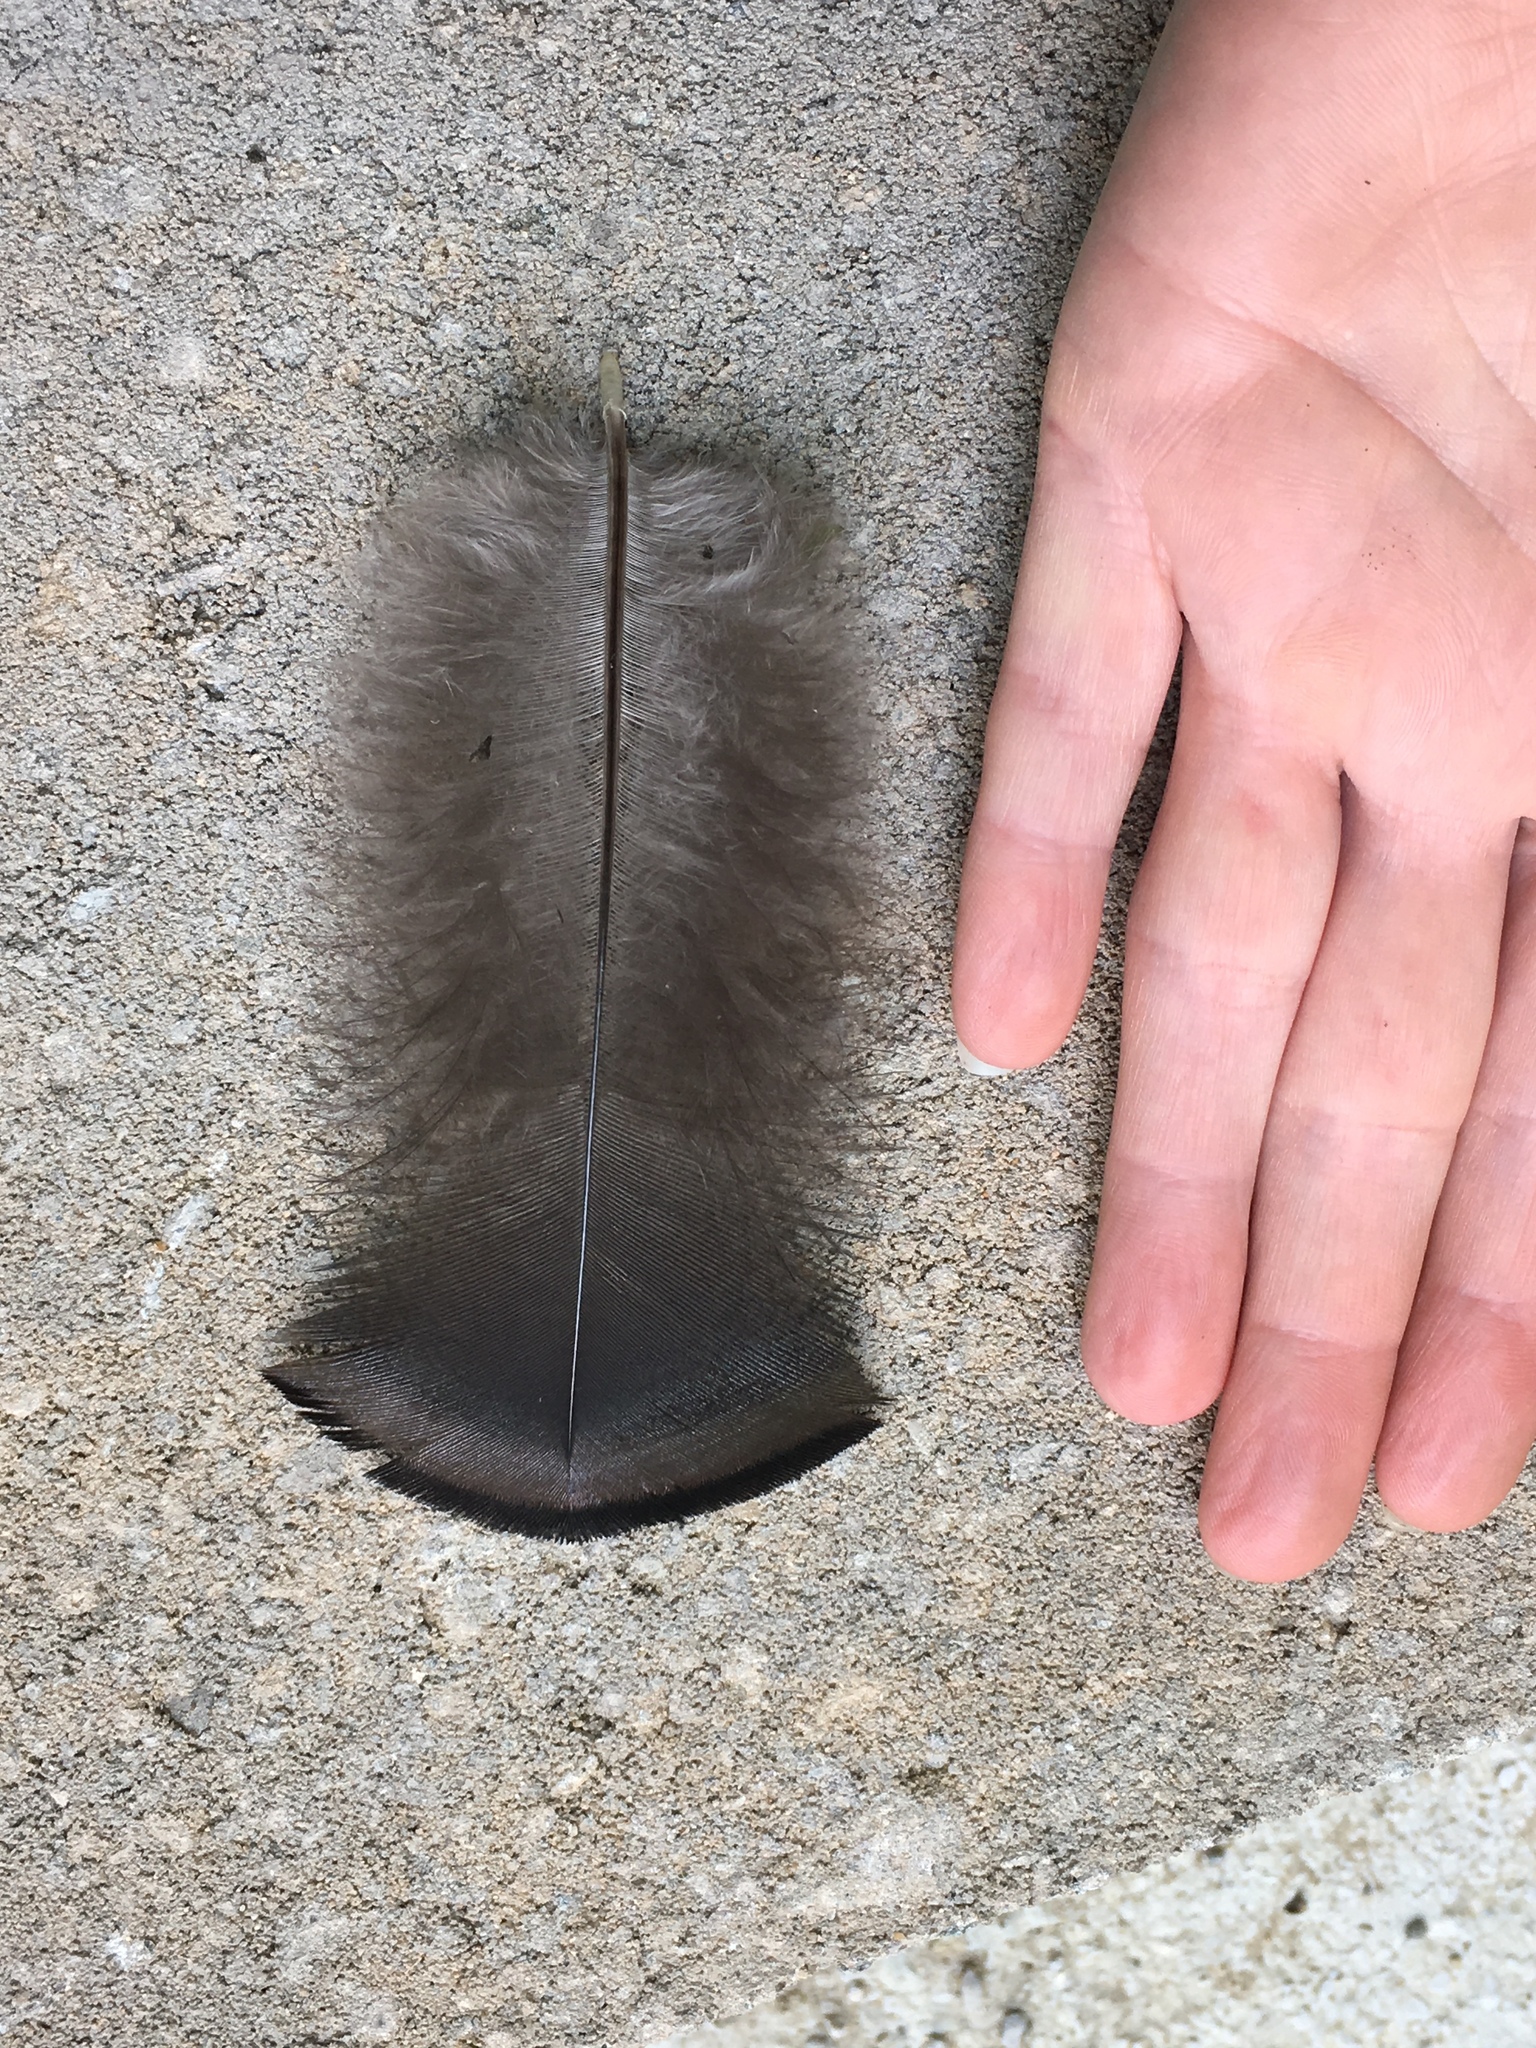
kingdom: Animalia
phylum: Chordata
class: Aves
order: Galliformes
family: Phasianidae
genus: Meleagris
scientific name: Meleagris gallopavo
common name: Wild turkey
